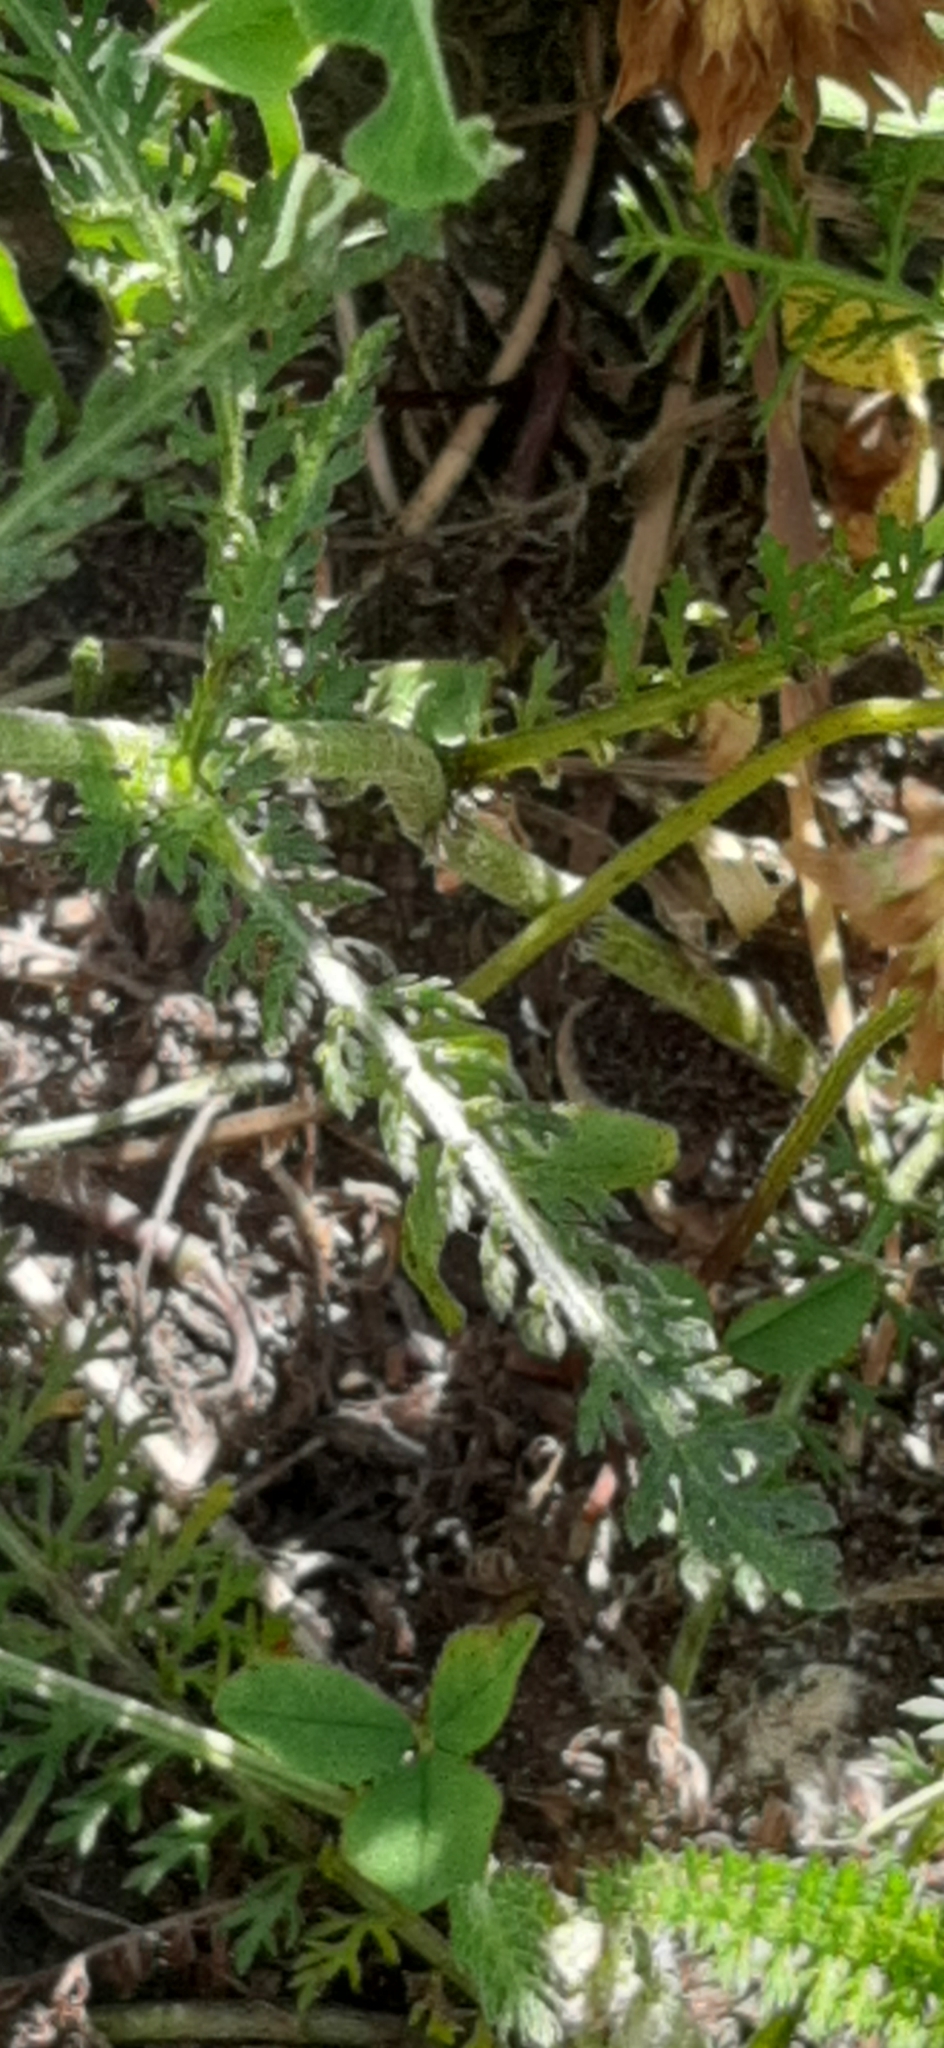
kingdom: Plantae
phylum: Tracheophyta
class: Magnoliopsida
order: Asterales
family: Asteraceae
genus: Achillea
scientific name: Achillea millefolium
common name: Yarrow
